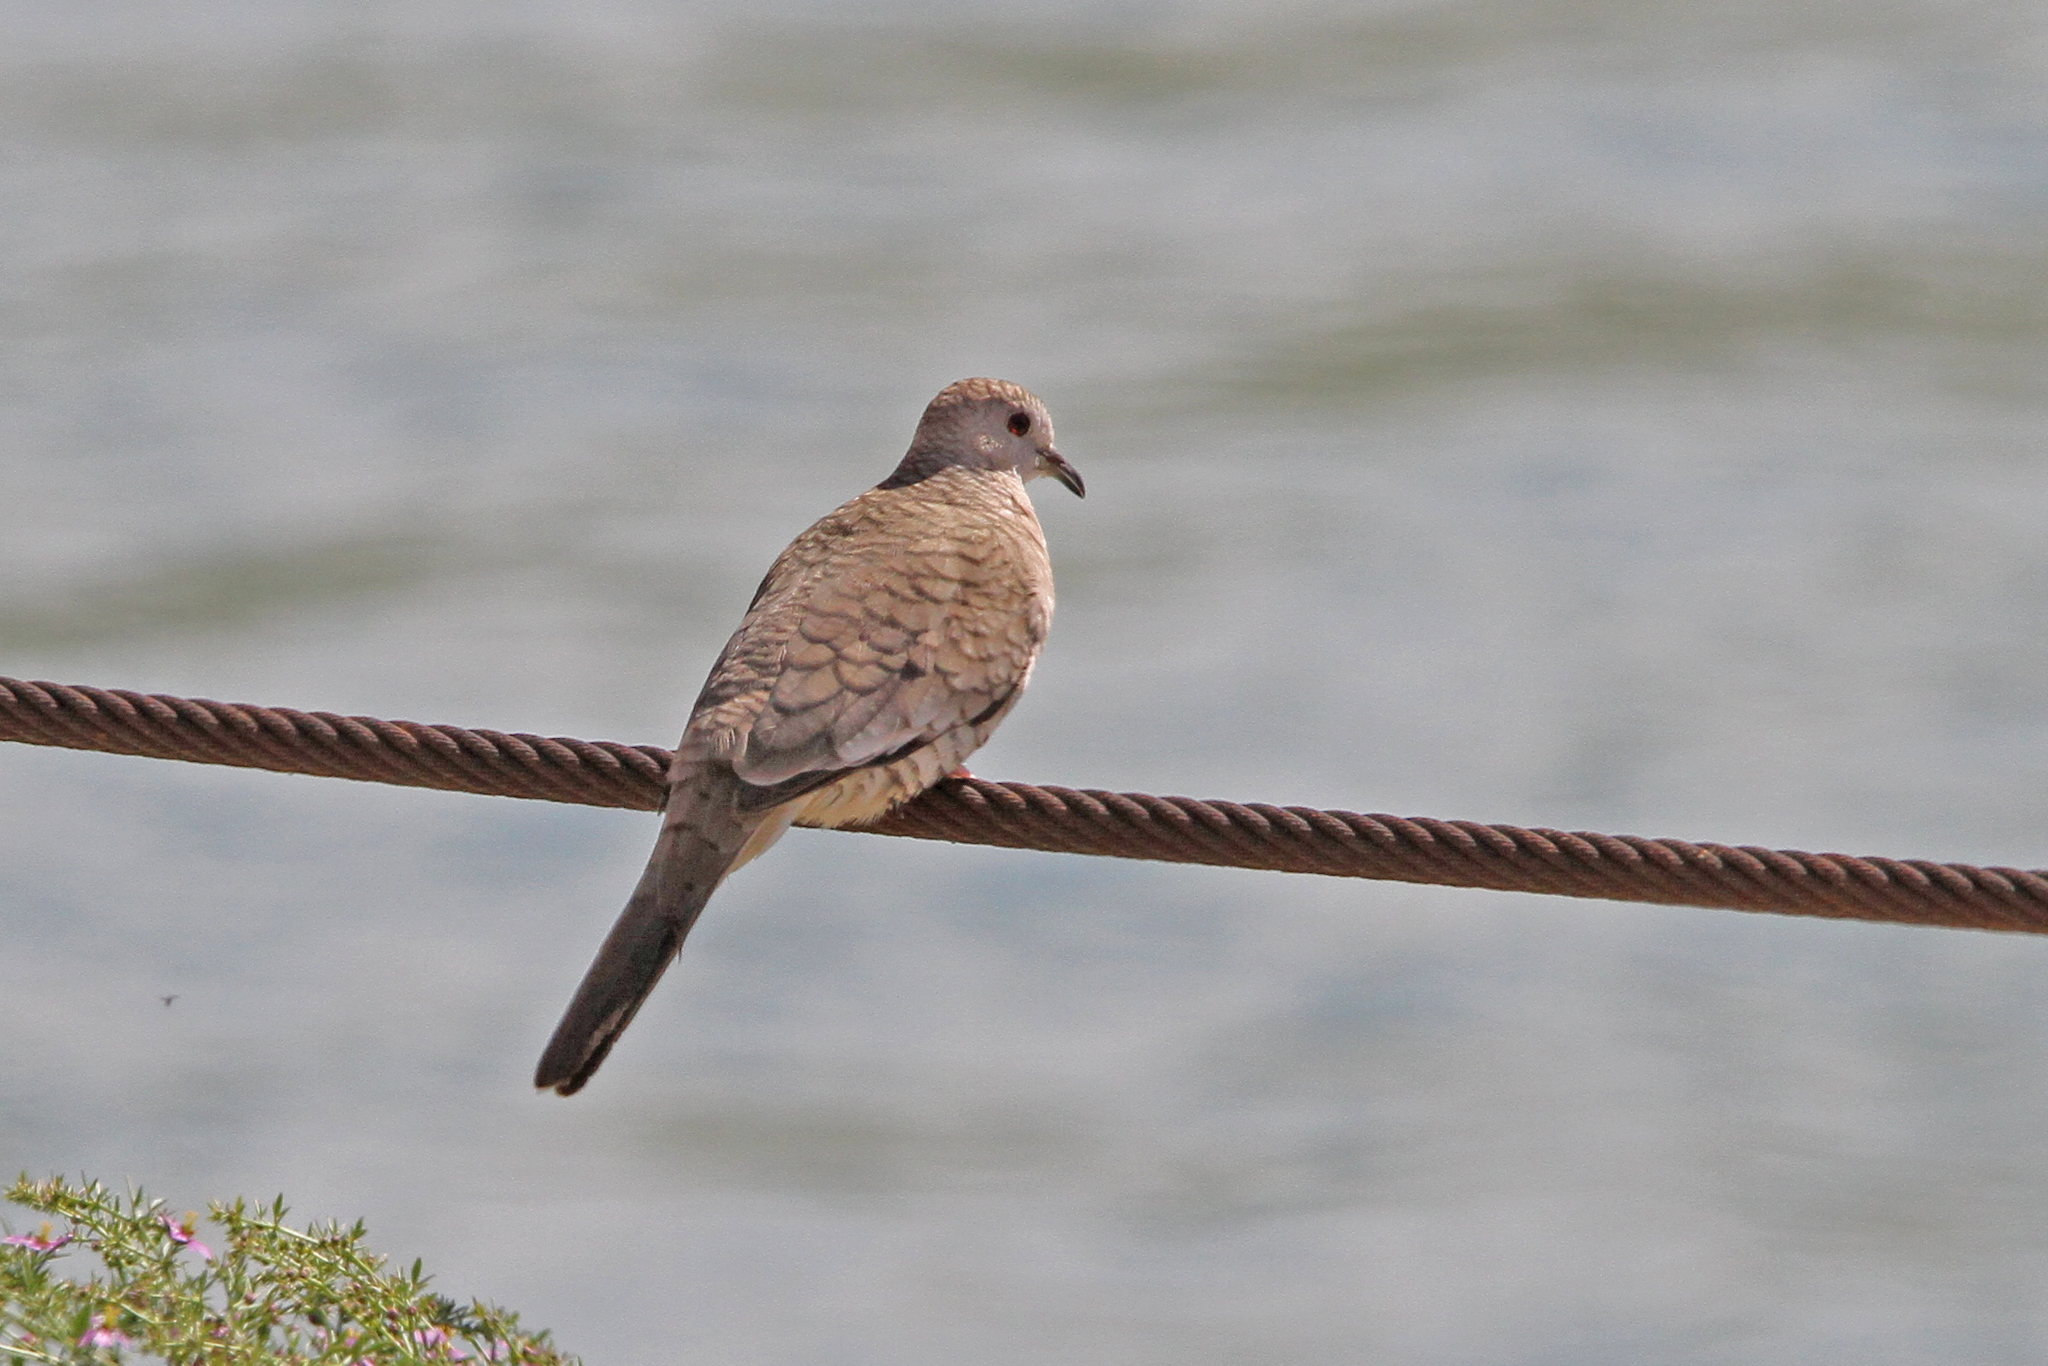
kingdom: Animalia
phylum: Chordata
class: Aves
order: Columbiformes
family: Columbidae
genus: Columbina
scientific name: Columbina inca
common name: Inca dove
